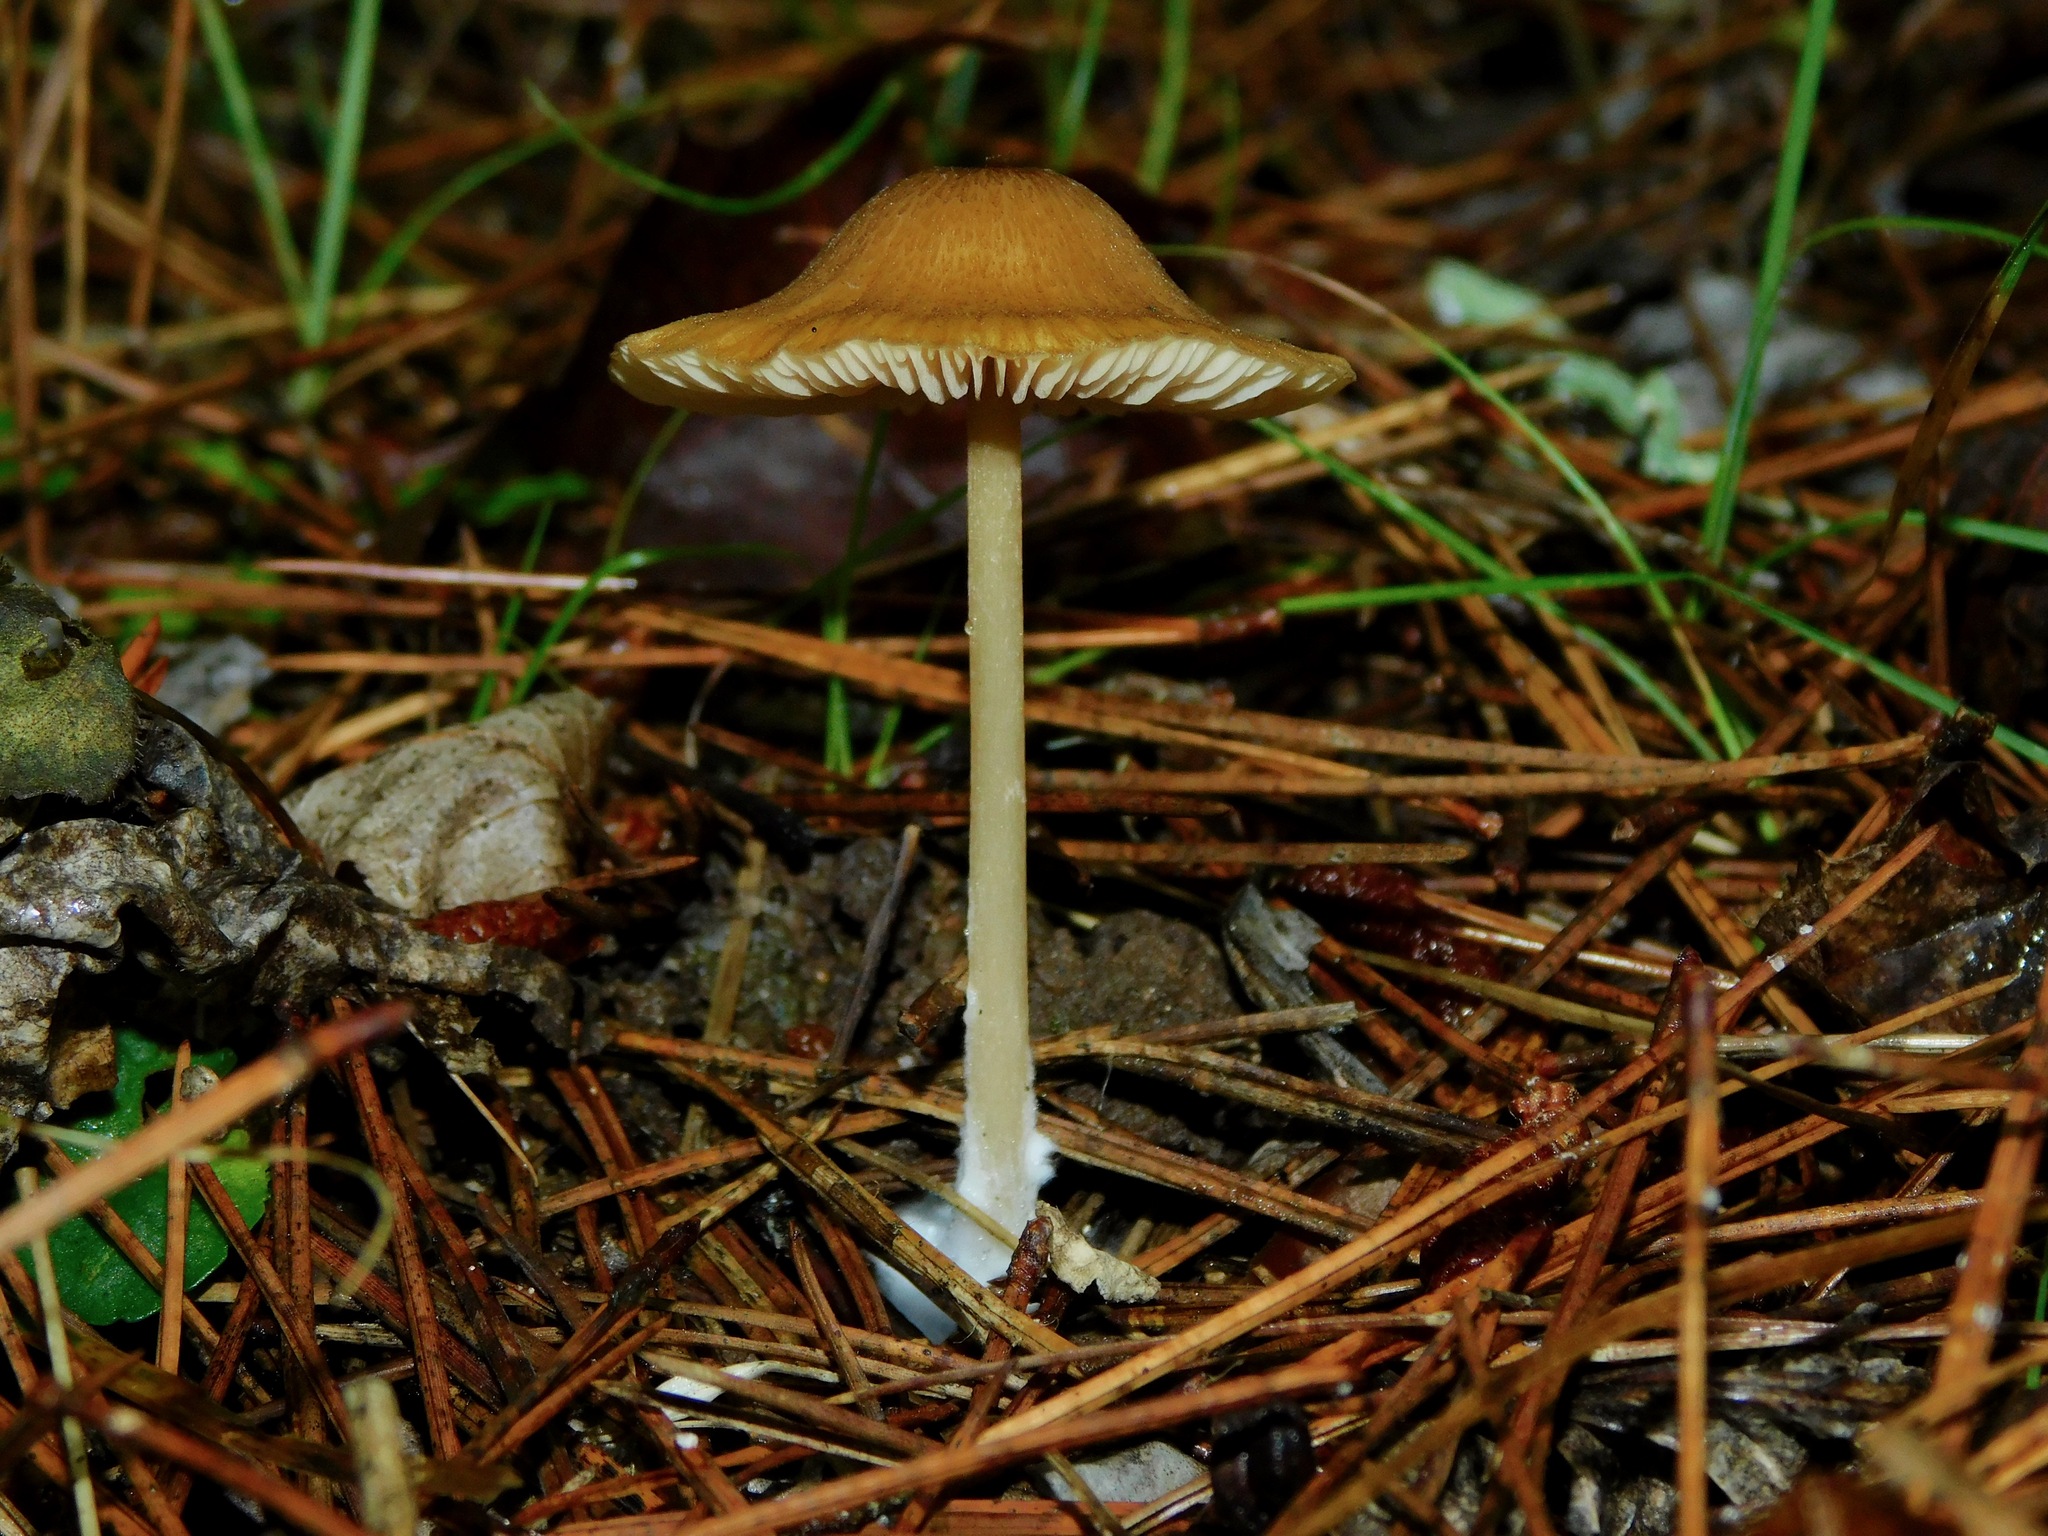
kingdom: Fungi
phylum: Basidiomycota
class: Agaricomycetes
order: Agaricales
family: Cortinariaceae
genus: Cortinarius
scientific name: Cortinarius corrugatus
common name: Wrinkled cortinarius
